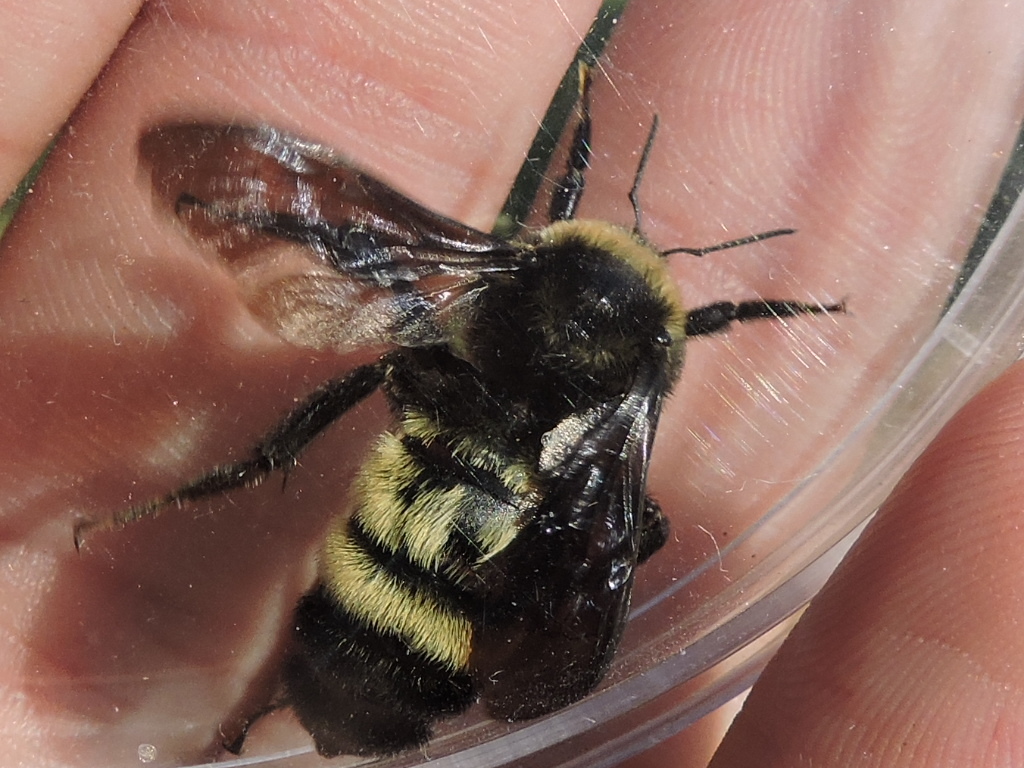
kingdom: Animalia
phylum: Arthropoda
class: Insecta
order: Hymenoptera
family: Apidae
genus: Bombus
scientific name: Bombus pensylvanicus
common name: Bumble bee
